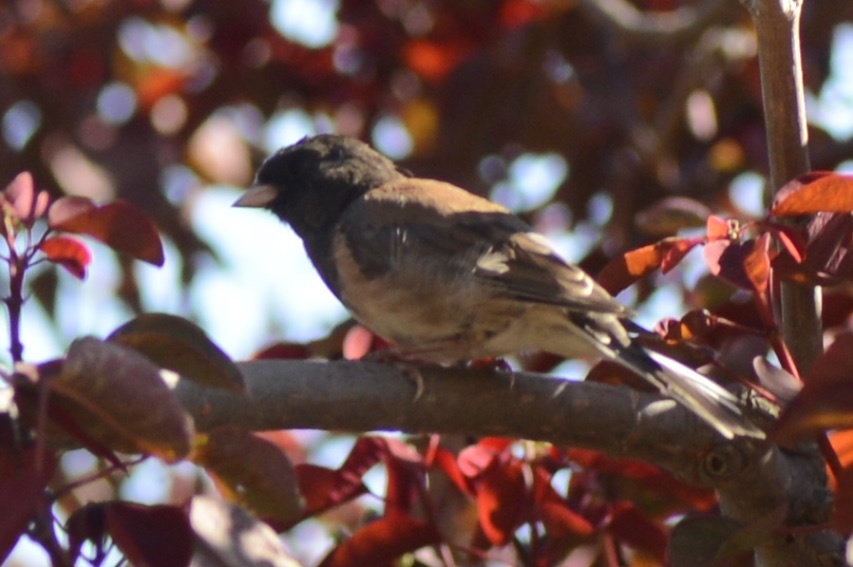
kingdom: Animalia
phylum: Chordata
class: Aves
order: Passeriformes
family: Passerellidae
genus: Junco
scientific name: Junco hyemalis
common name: Dark-eyed junco
